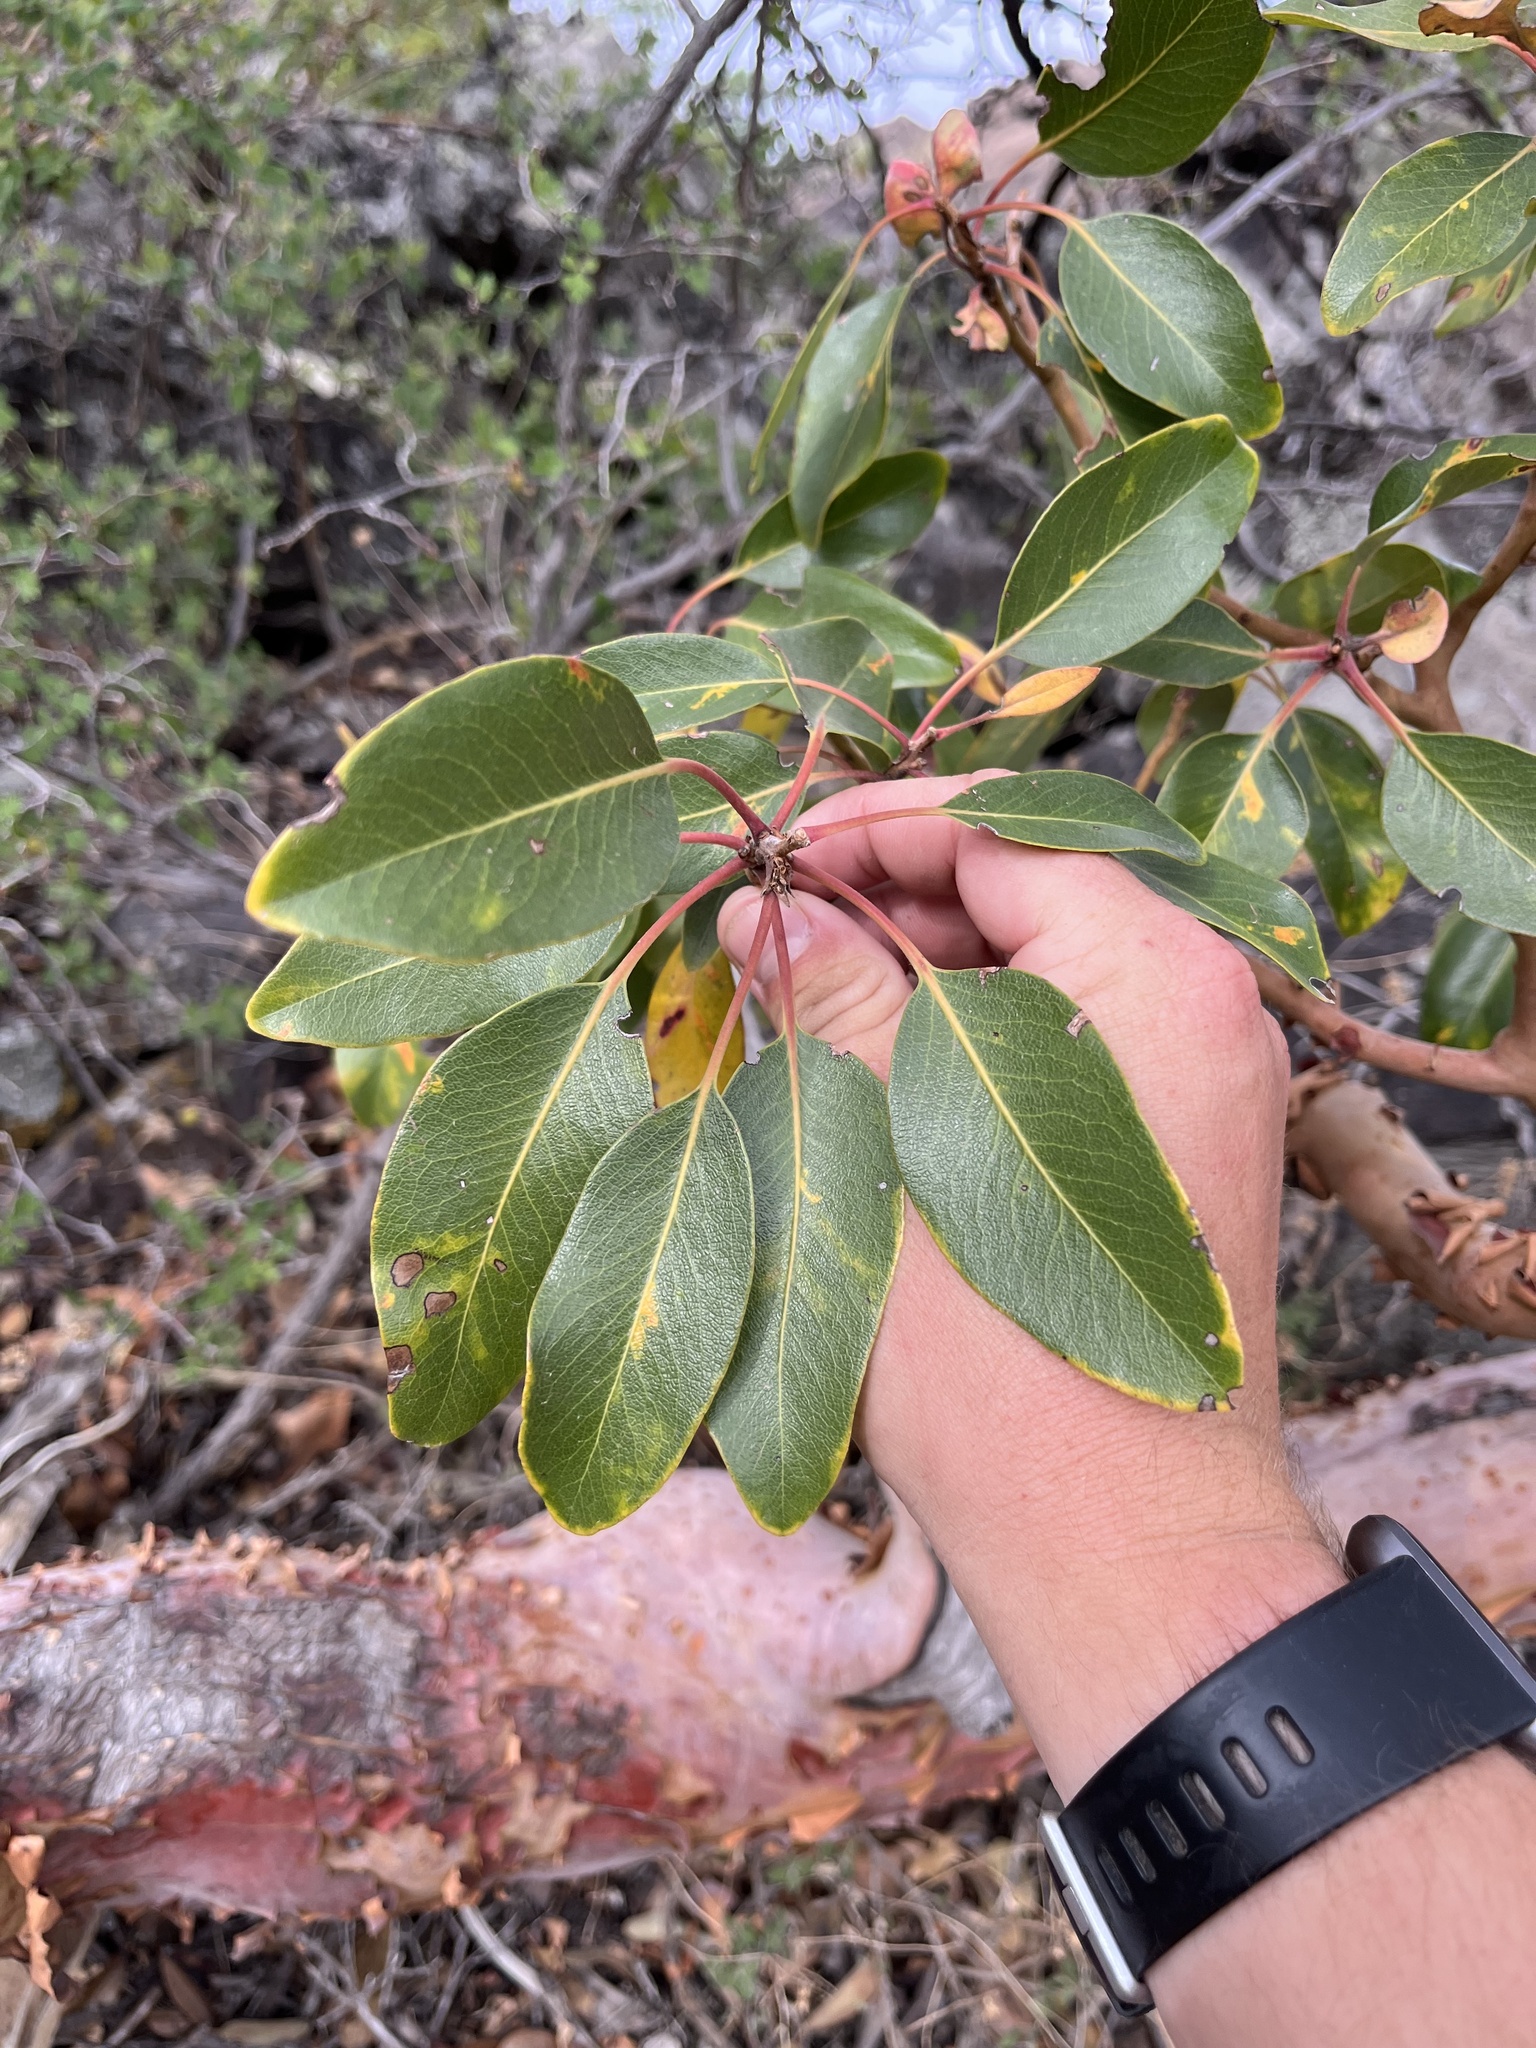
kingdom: Plantae
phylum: Tracheophyta
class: Magnoliopsida
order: Ericales
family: Ericaceae
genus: Arbutus
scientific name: Arbutus xalapensis
